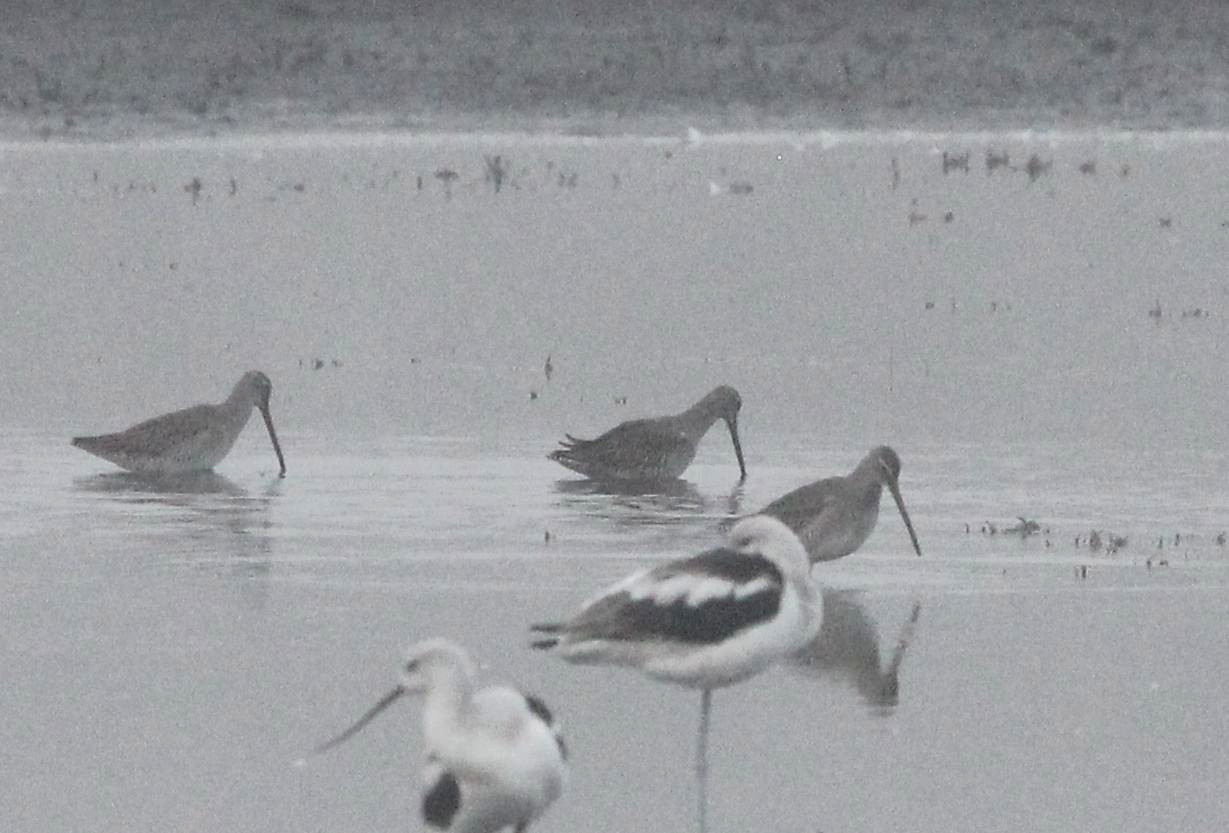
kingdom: Animalia
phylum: Chordata
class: Aves
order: Charadriiformes
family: Scolopacidae
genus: Limnodromus
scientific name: Limnodromus scolopaceus
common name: Long-billed dowitcher
